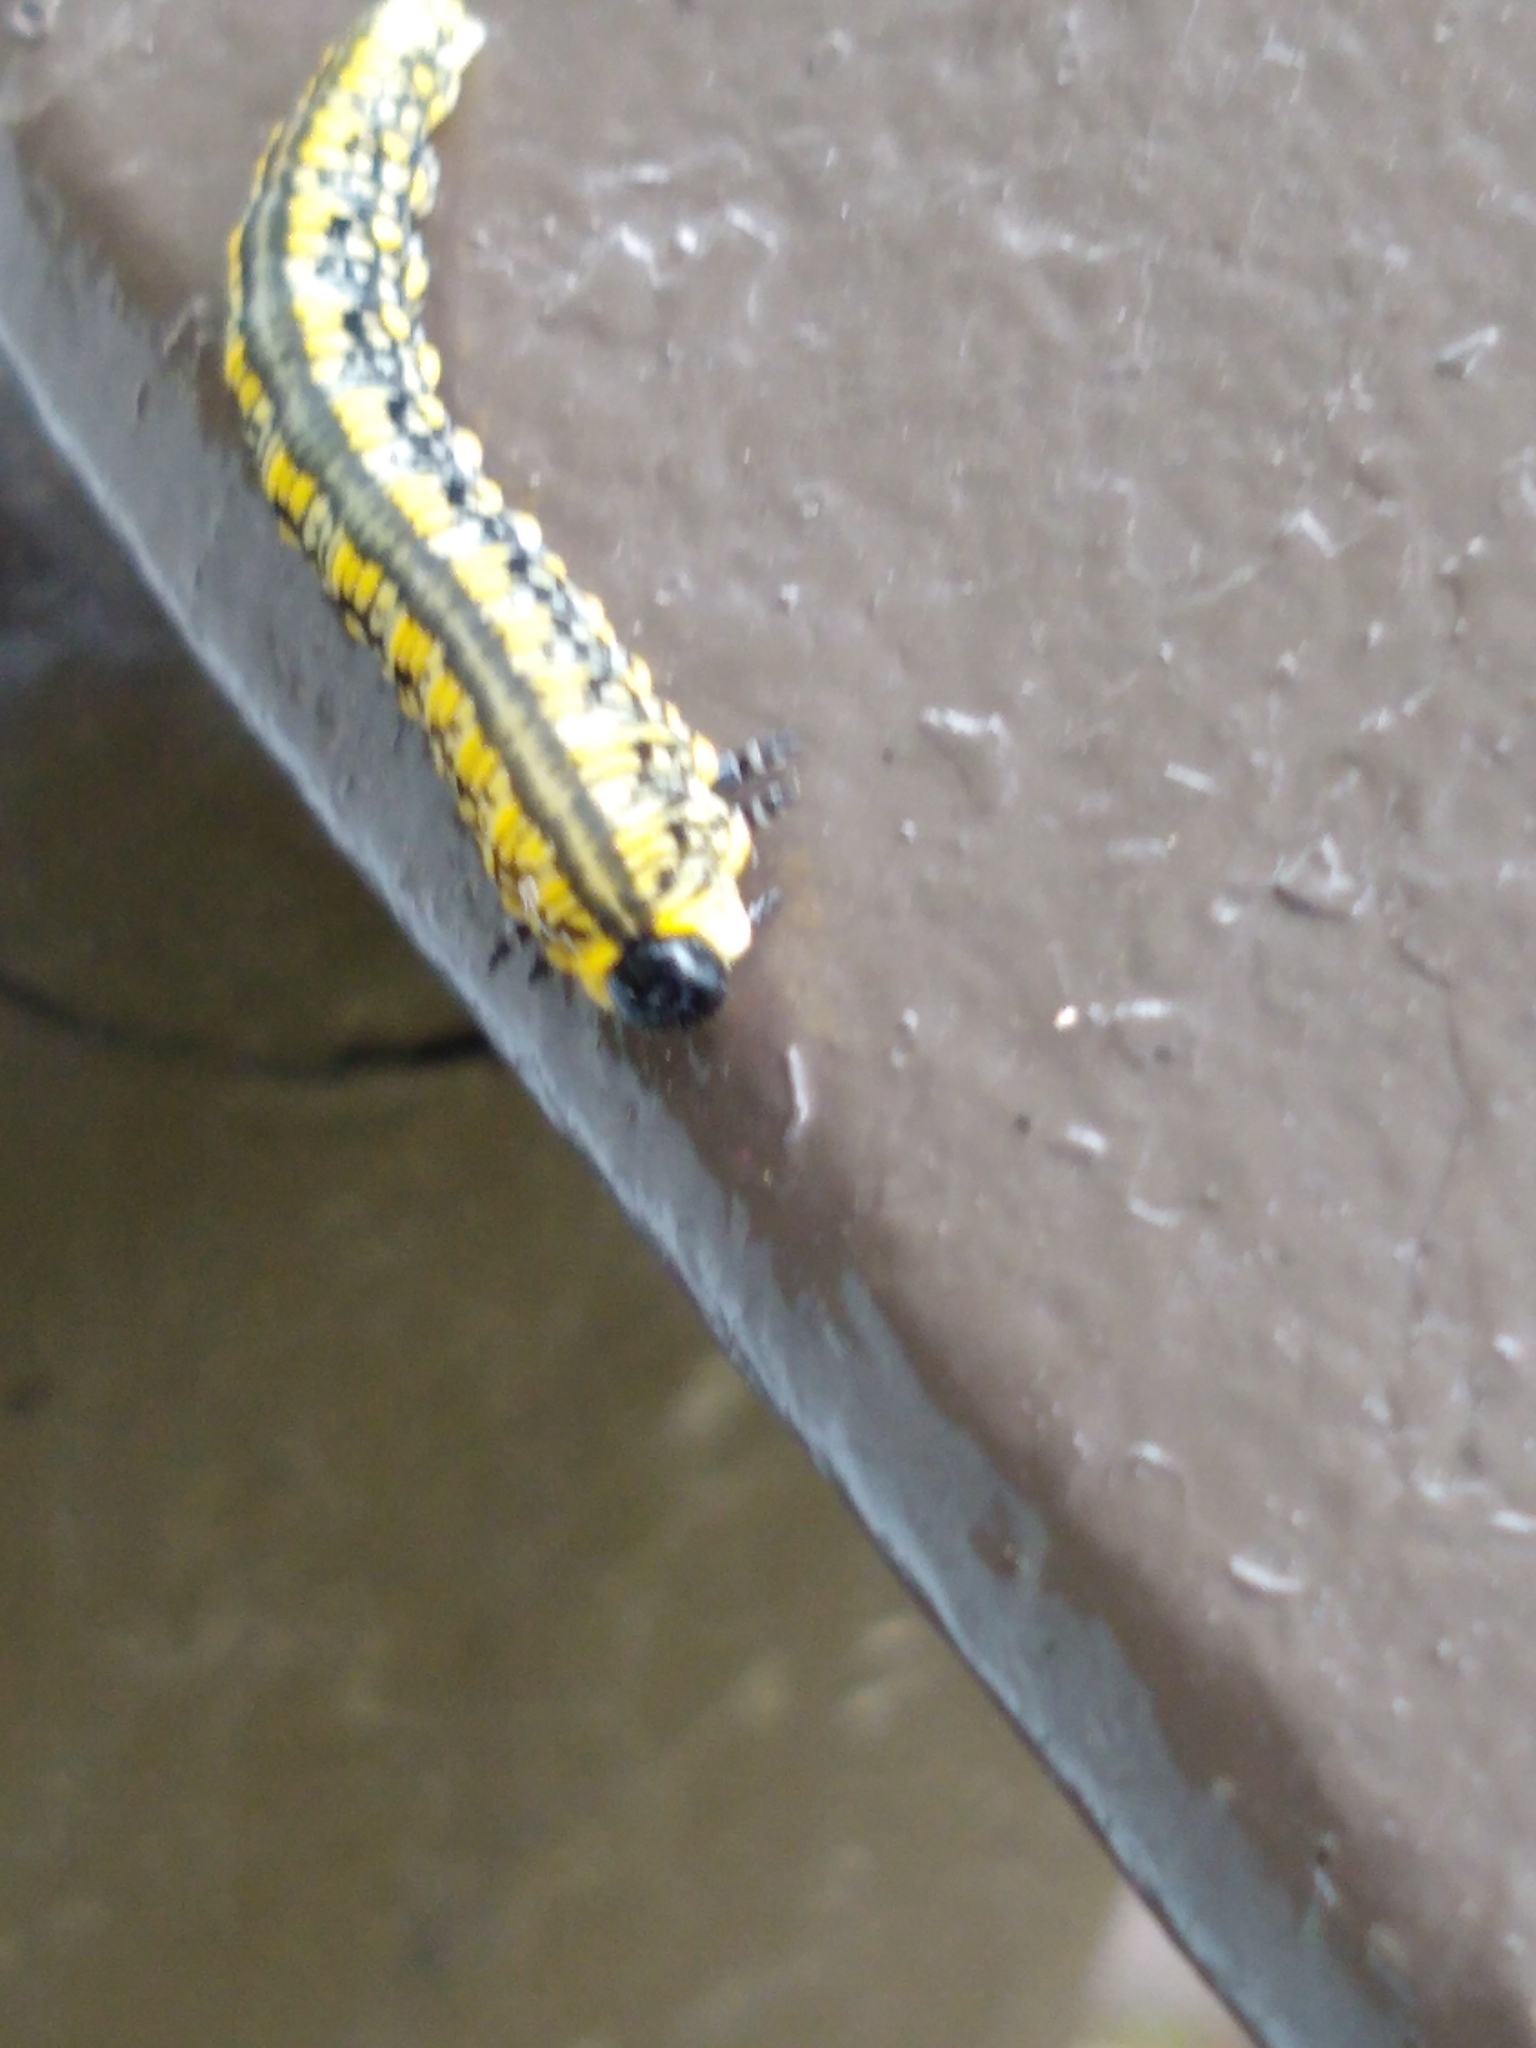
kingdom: Animalia
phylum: Arthropoda
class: Insecta
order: Hymenoptera
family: Diprionidae
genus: Diprion
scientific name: Diprion similis
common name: Pine sawfly
